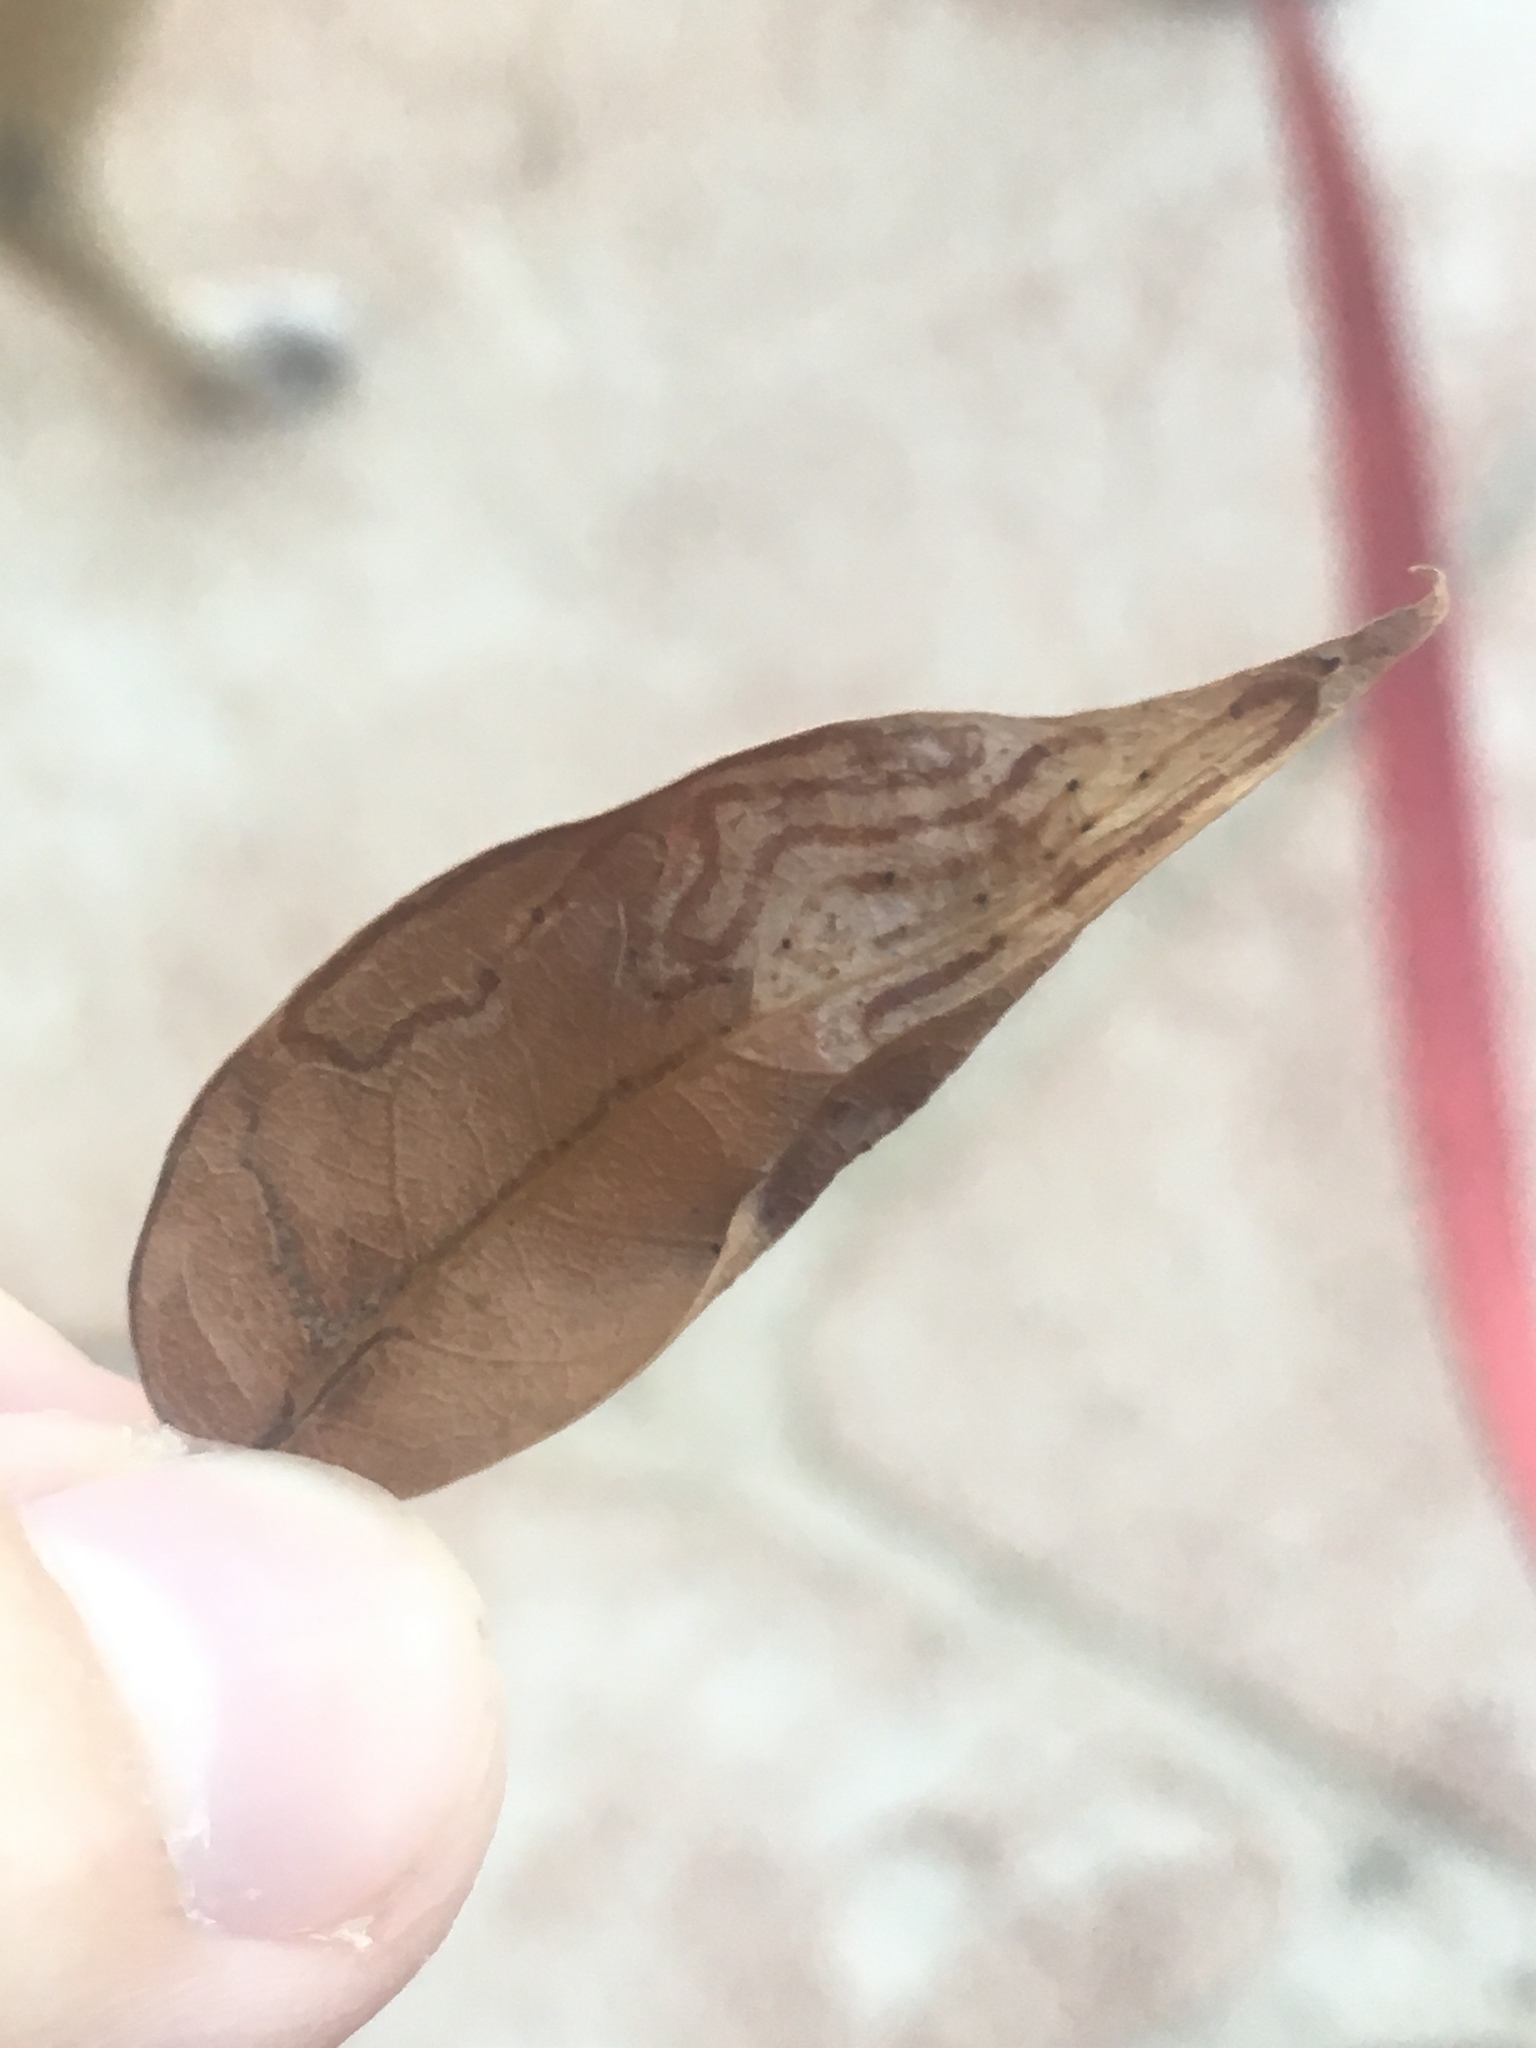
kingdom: Animalia
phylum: Arthropoda
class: Insecta
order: Lepidoptera
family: Gracillariidae
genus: Phyllocnistis
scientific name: Phyllocnistis meliacella
